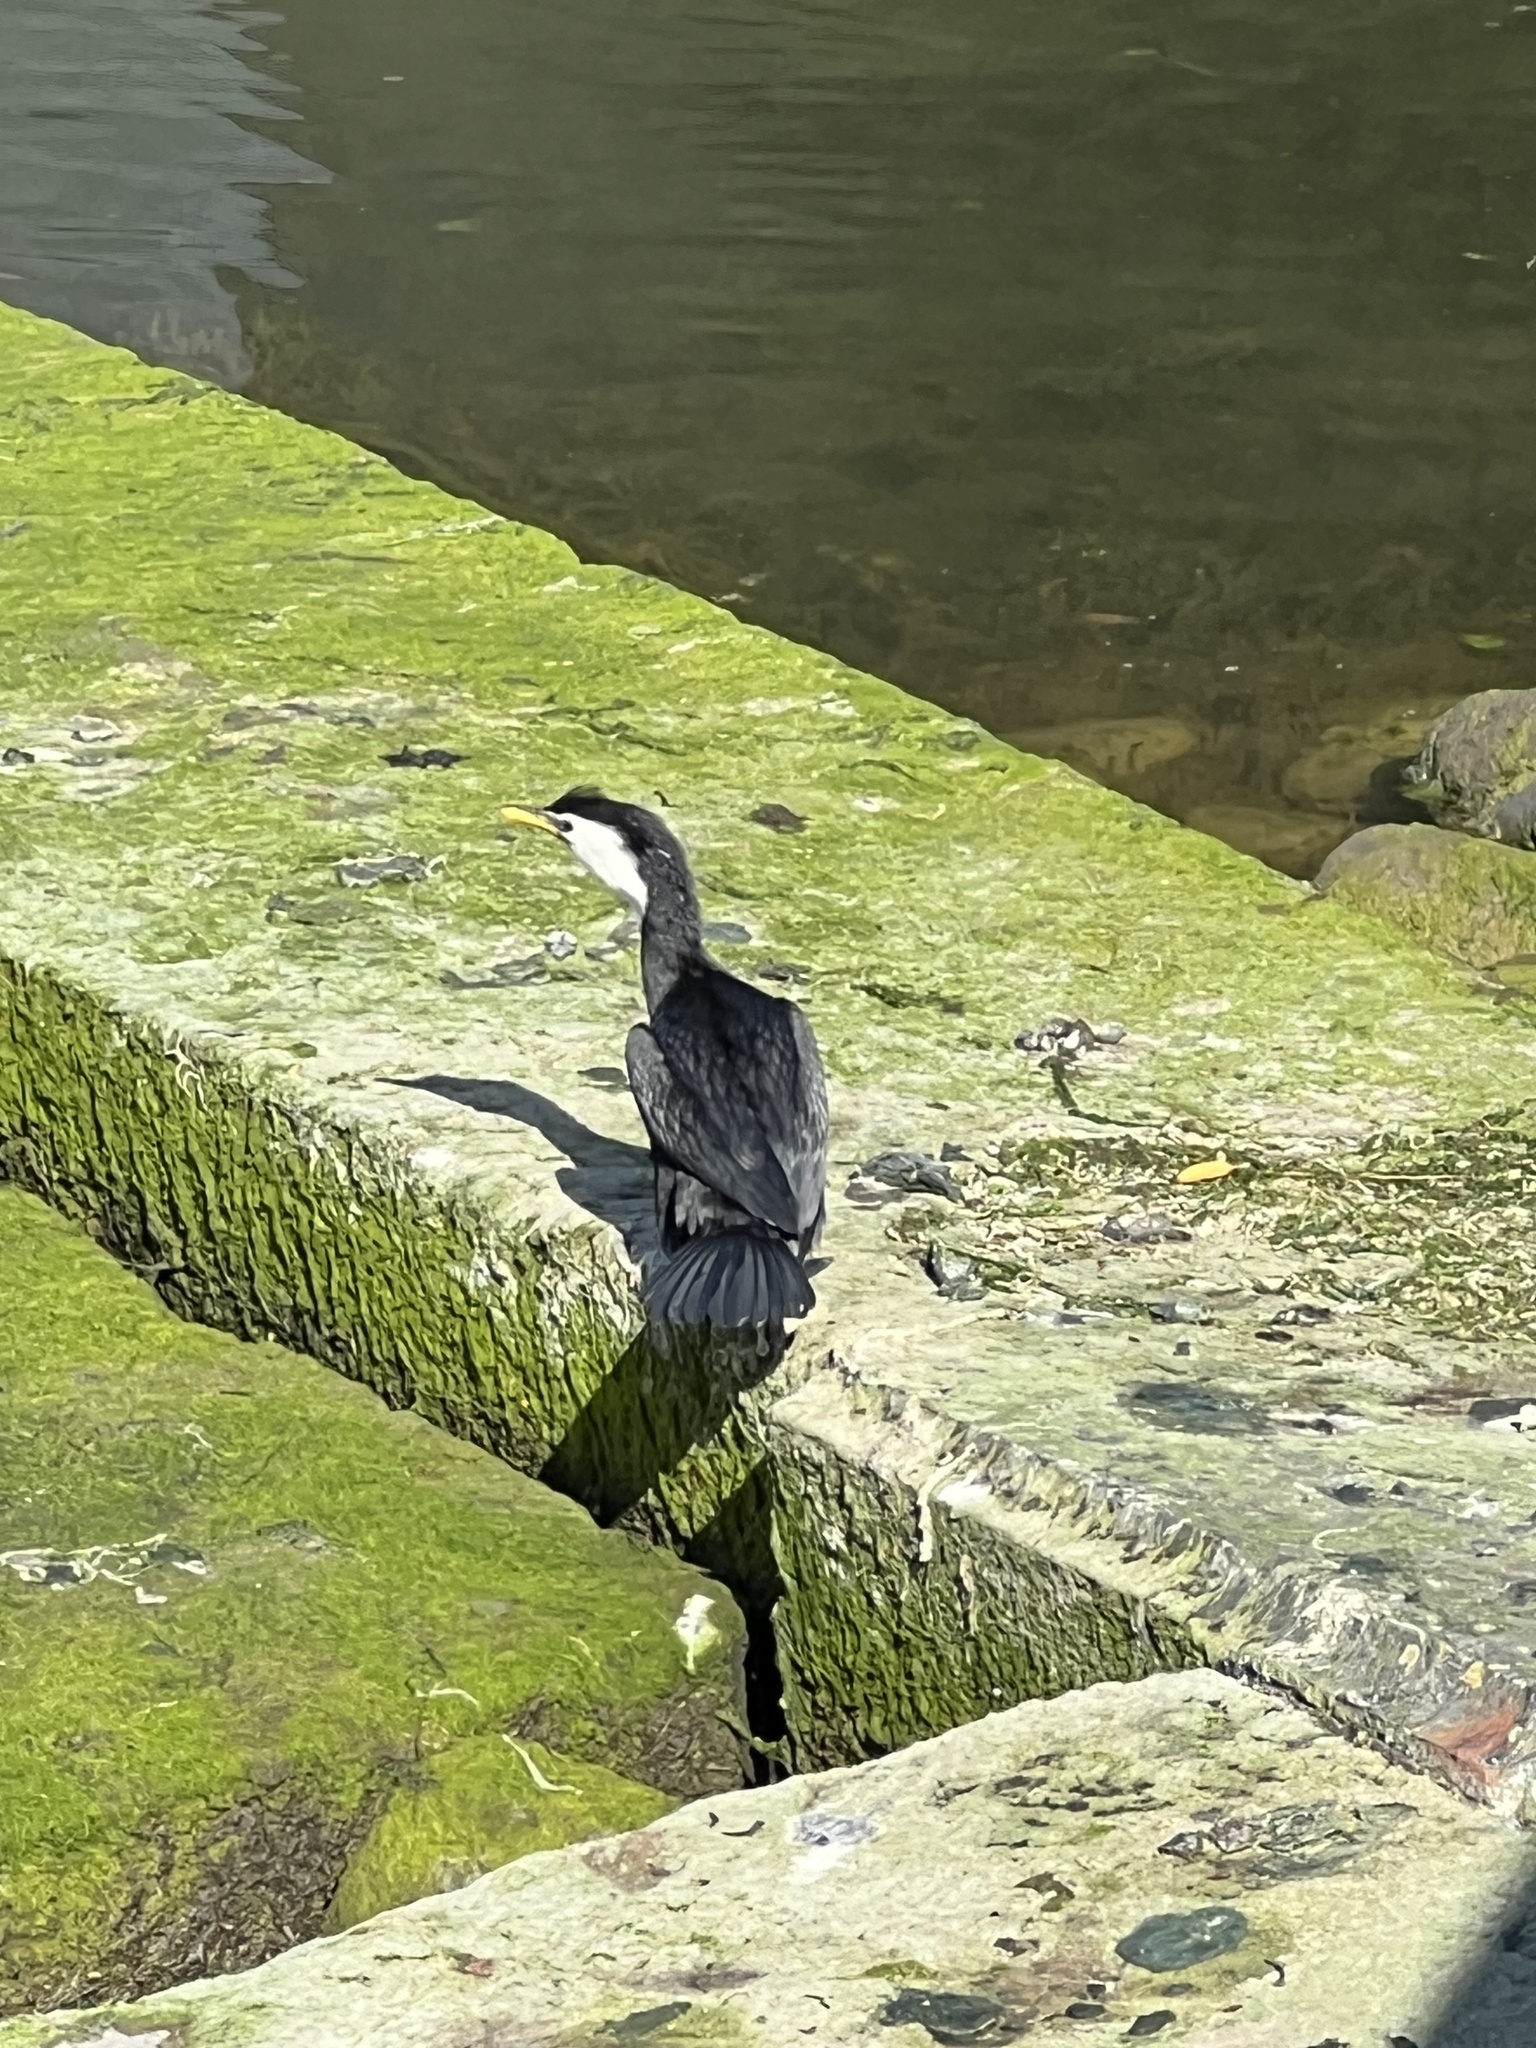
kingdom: Animalia
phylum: Chordata
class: Aves
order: Suliformes
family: Phalacrocoracidae
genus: Microcarbo
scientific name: Microcarbo melanoleucos
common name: Little pied cormorant
